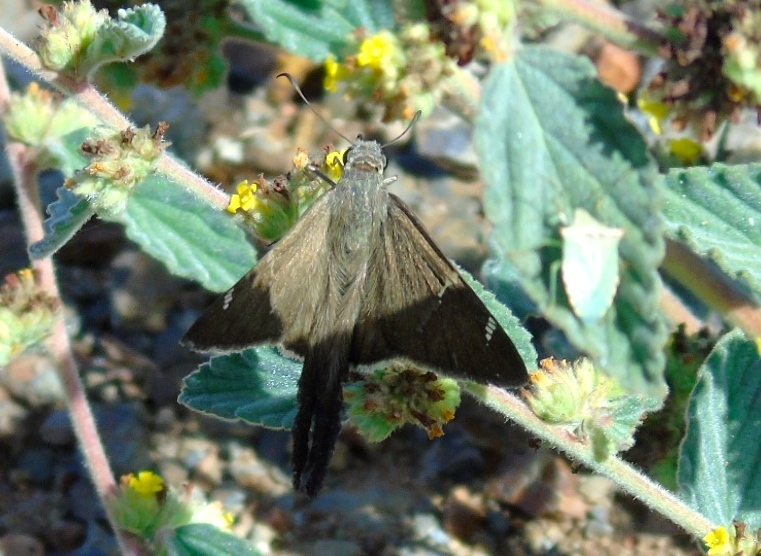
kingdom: Animalia
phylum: Arthropoda
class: Insecta
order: Lepidoptera
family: Hesperiidae
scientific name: Hesperiidae
